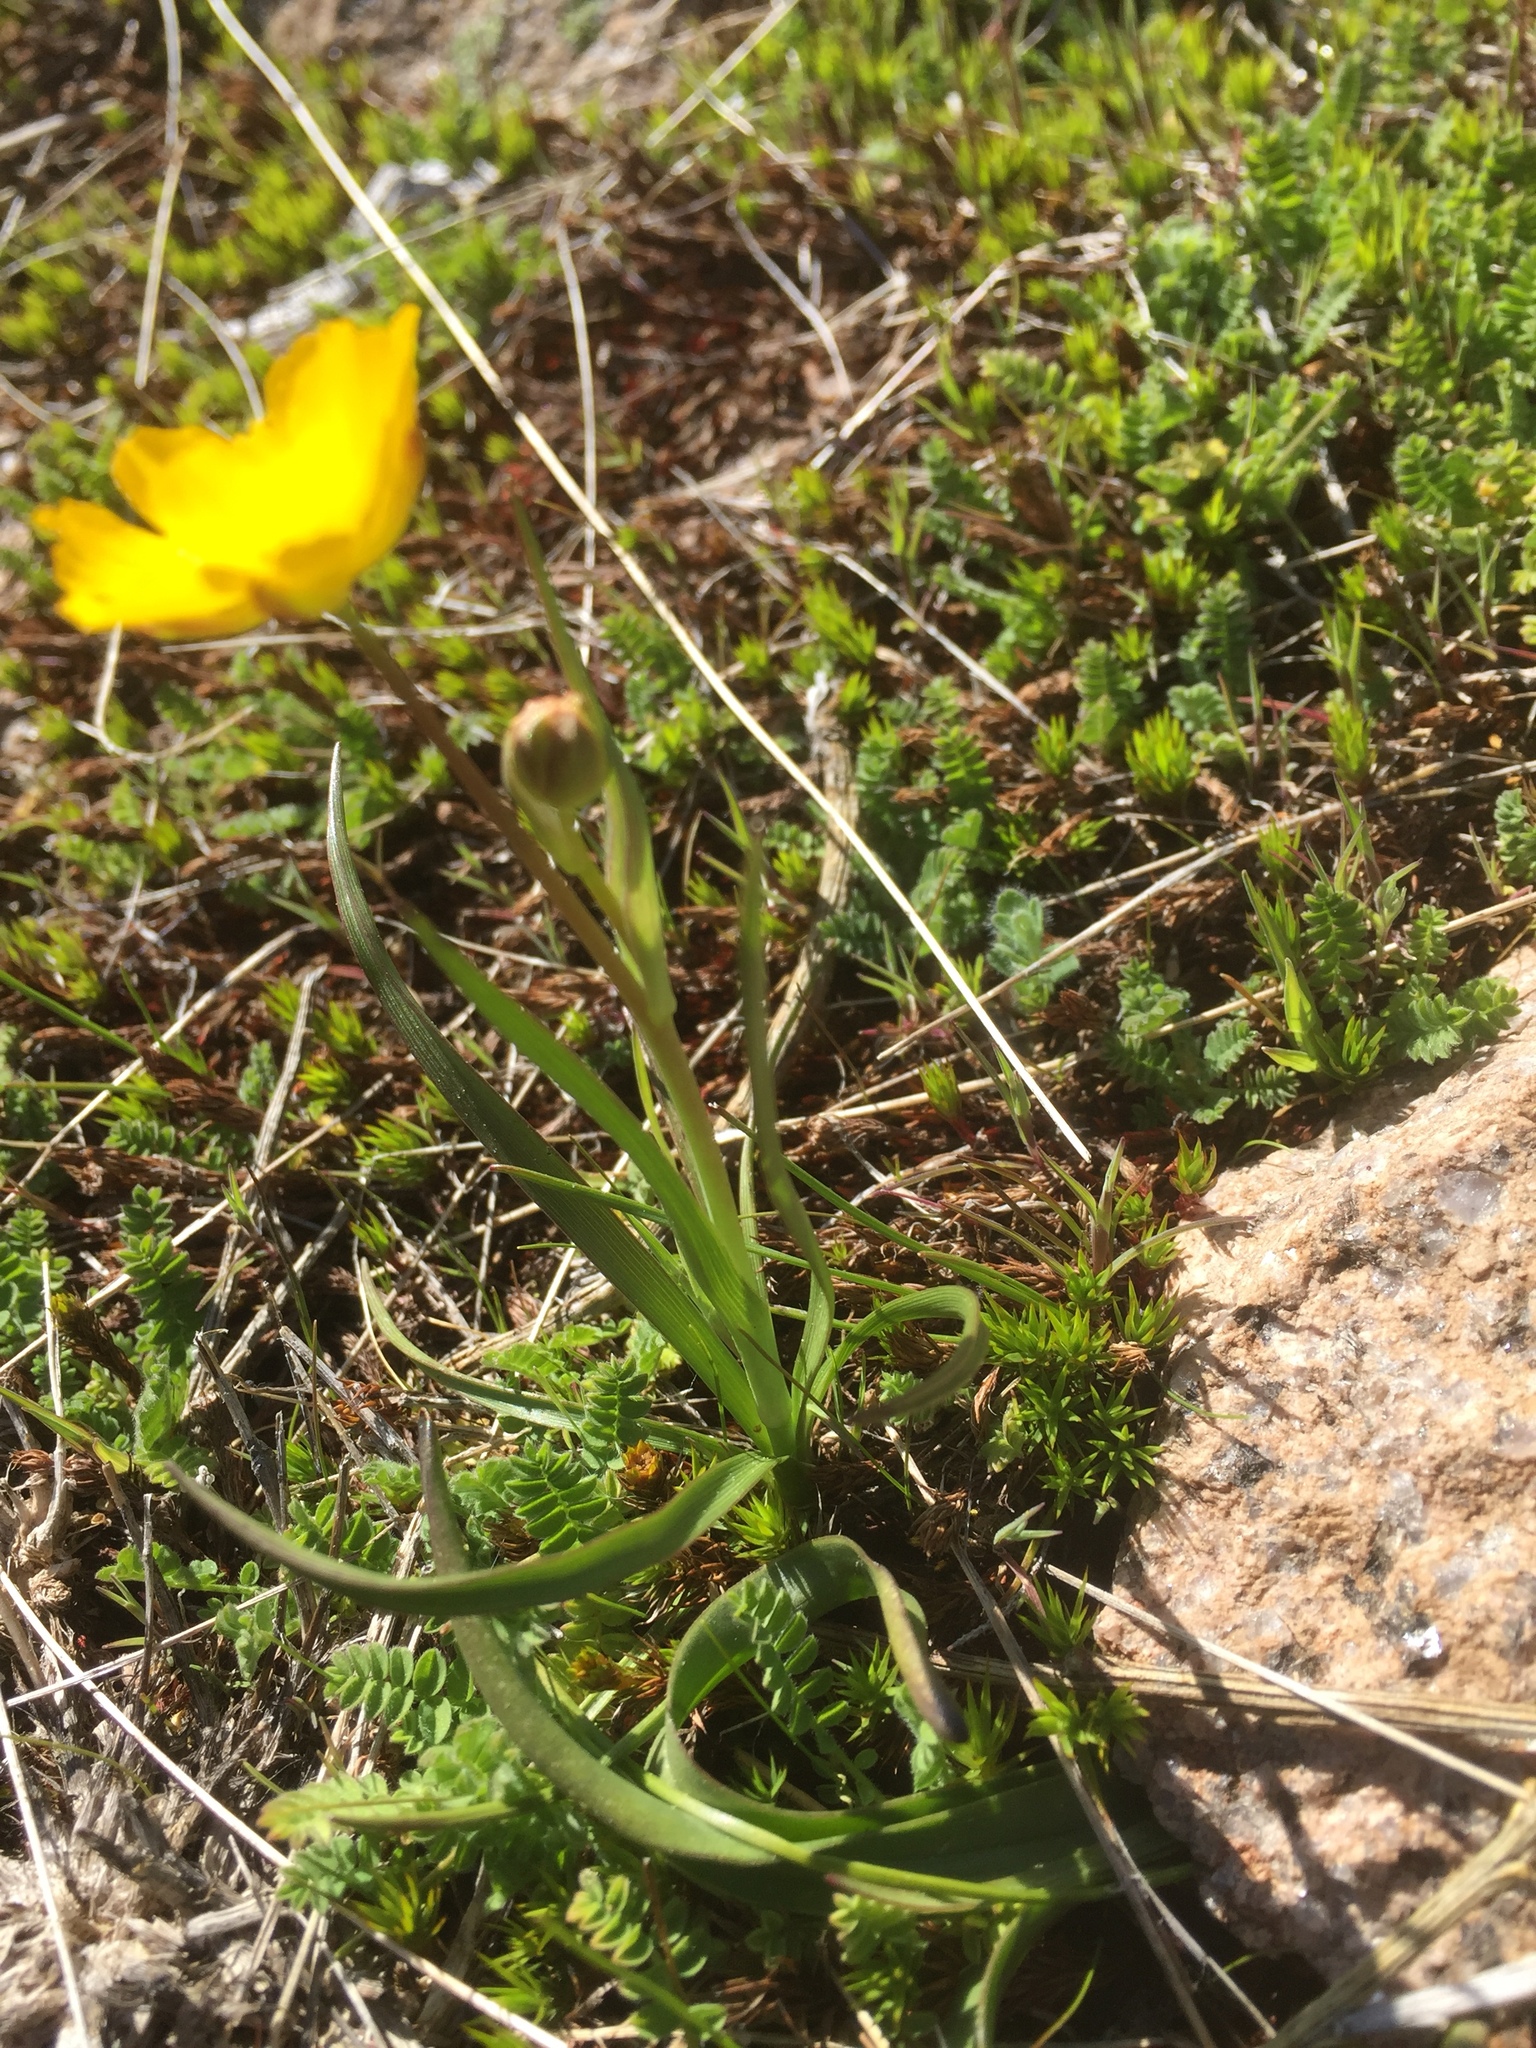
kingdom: Plantae
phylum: Tracheophyta
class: Magnoliopsida
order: Ranunculales
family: Ranunculaceae
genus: Ranunculus
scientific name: Ranunculus abnormis
